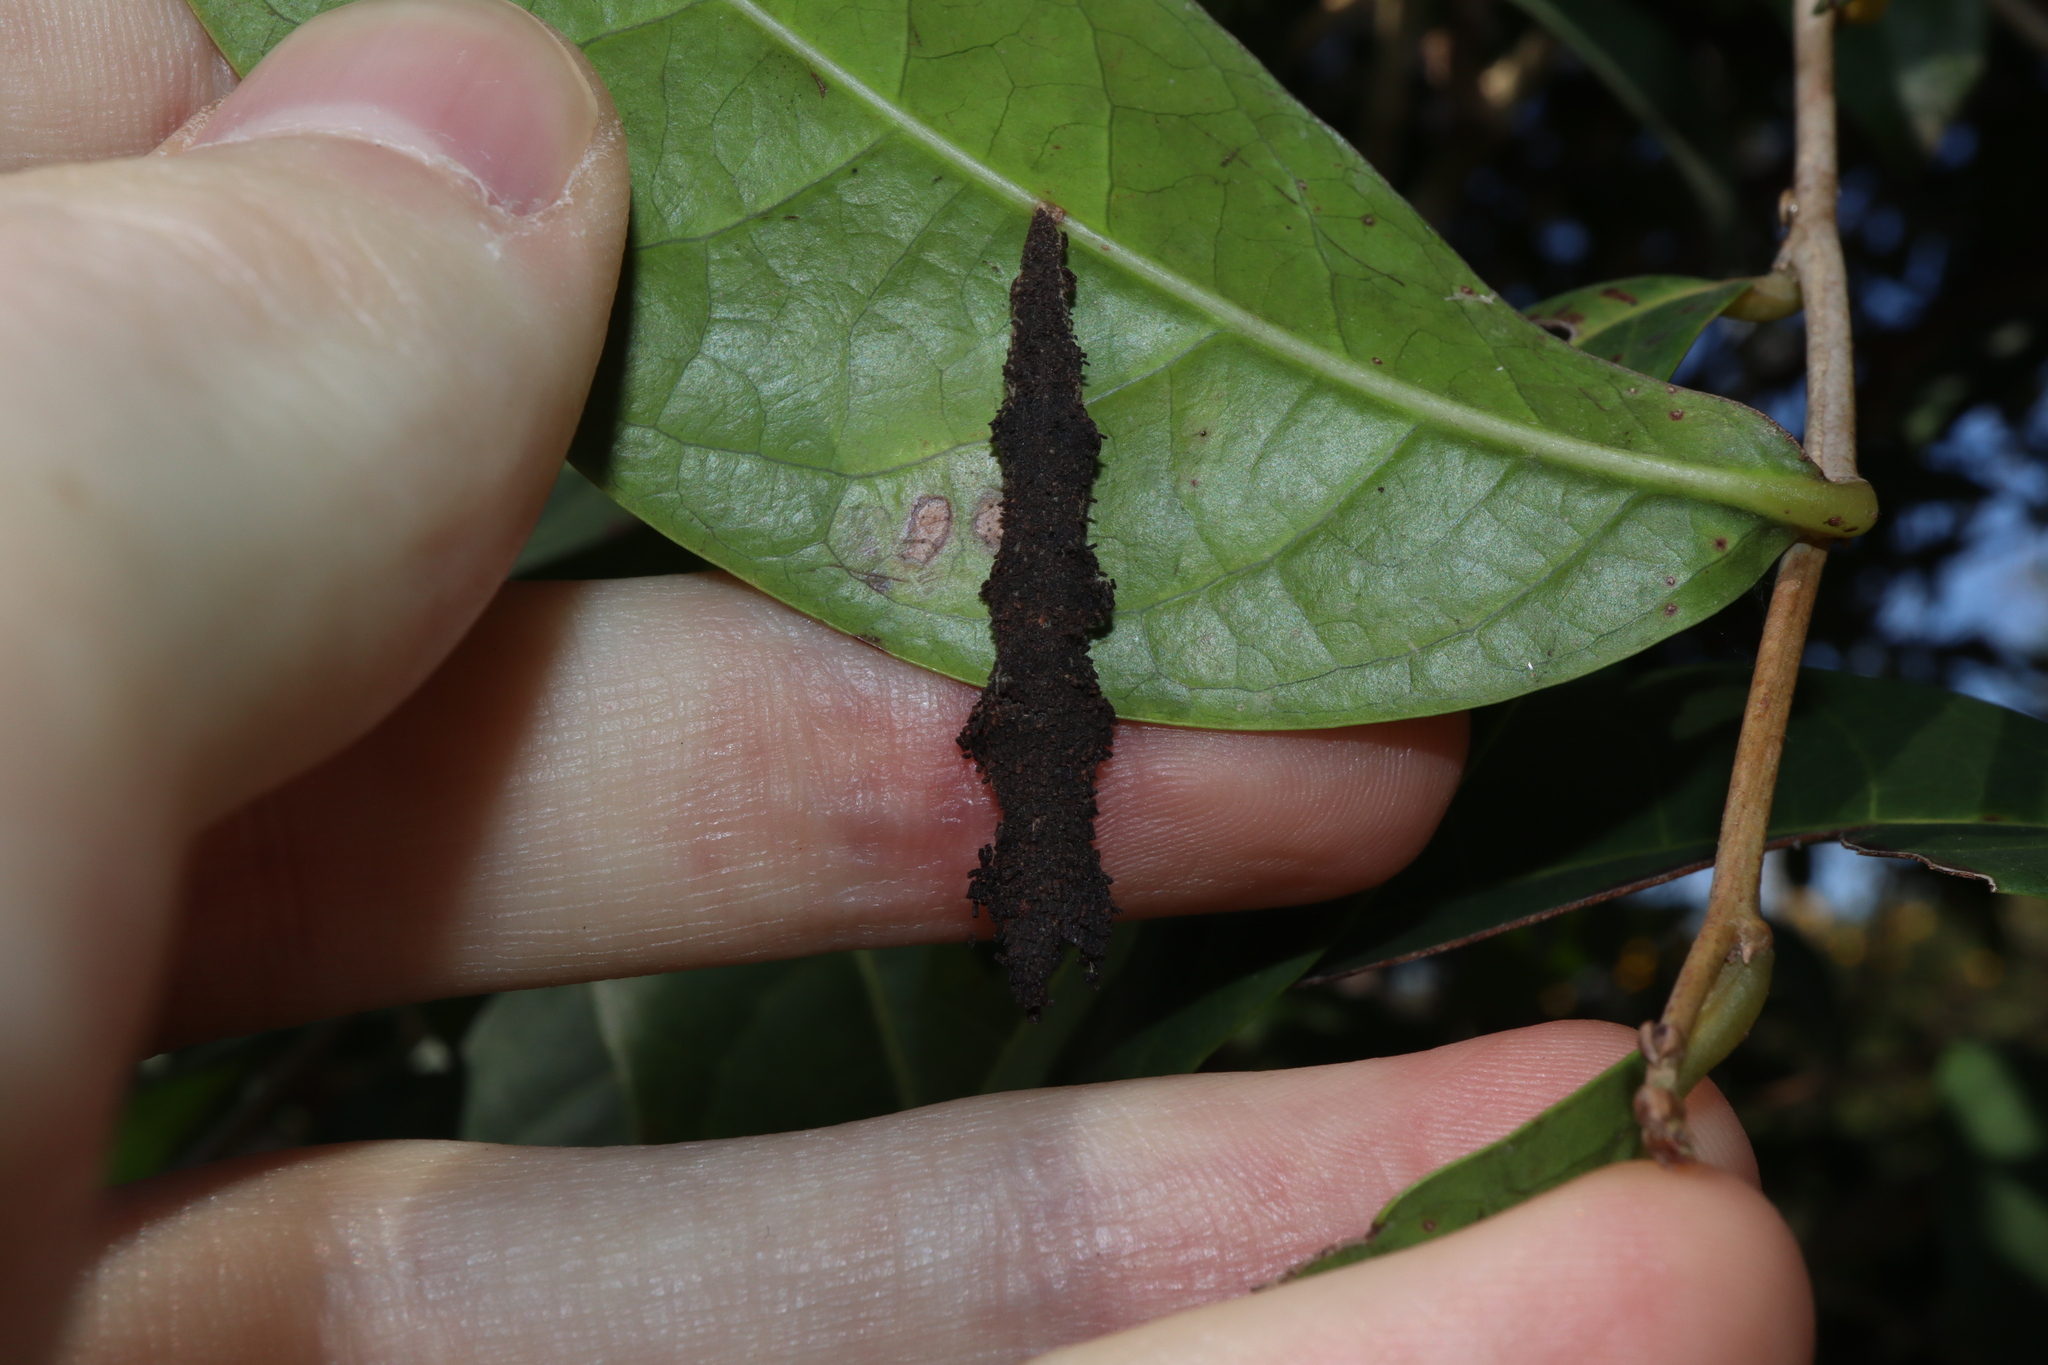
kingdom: Animalia
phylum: Arthropoda
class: Insecta
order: Lepidoptera
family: Pyralidae
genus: Stericta
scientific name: Stericta orchidivora
